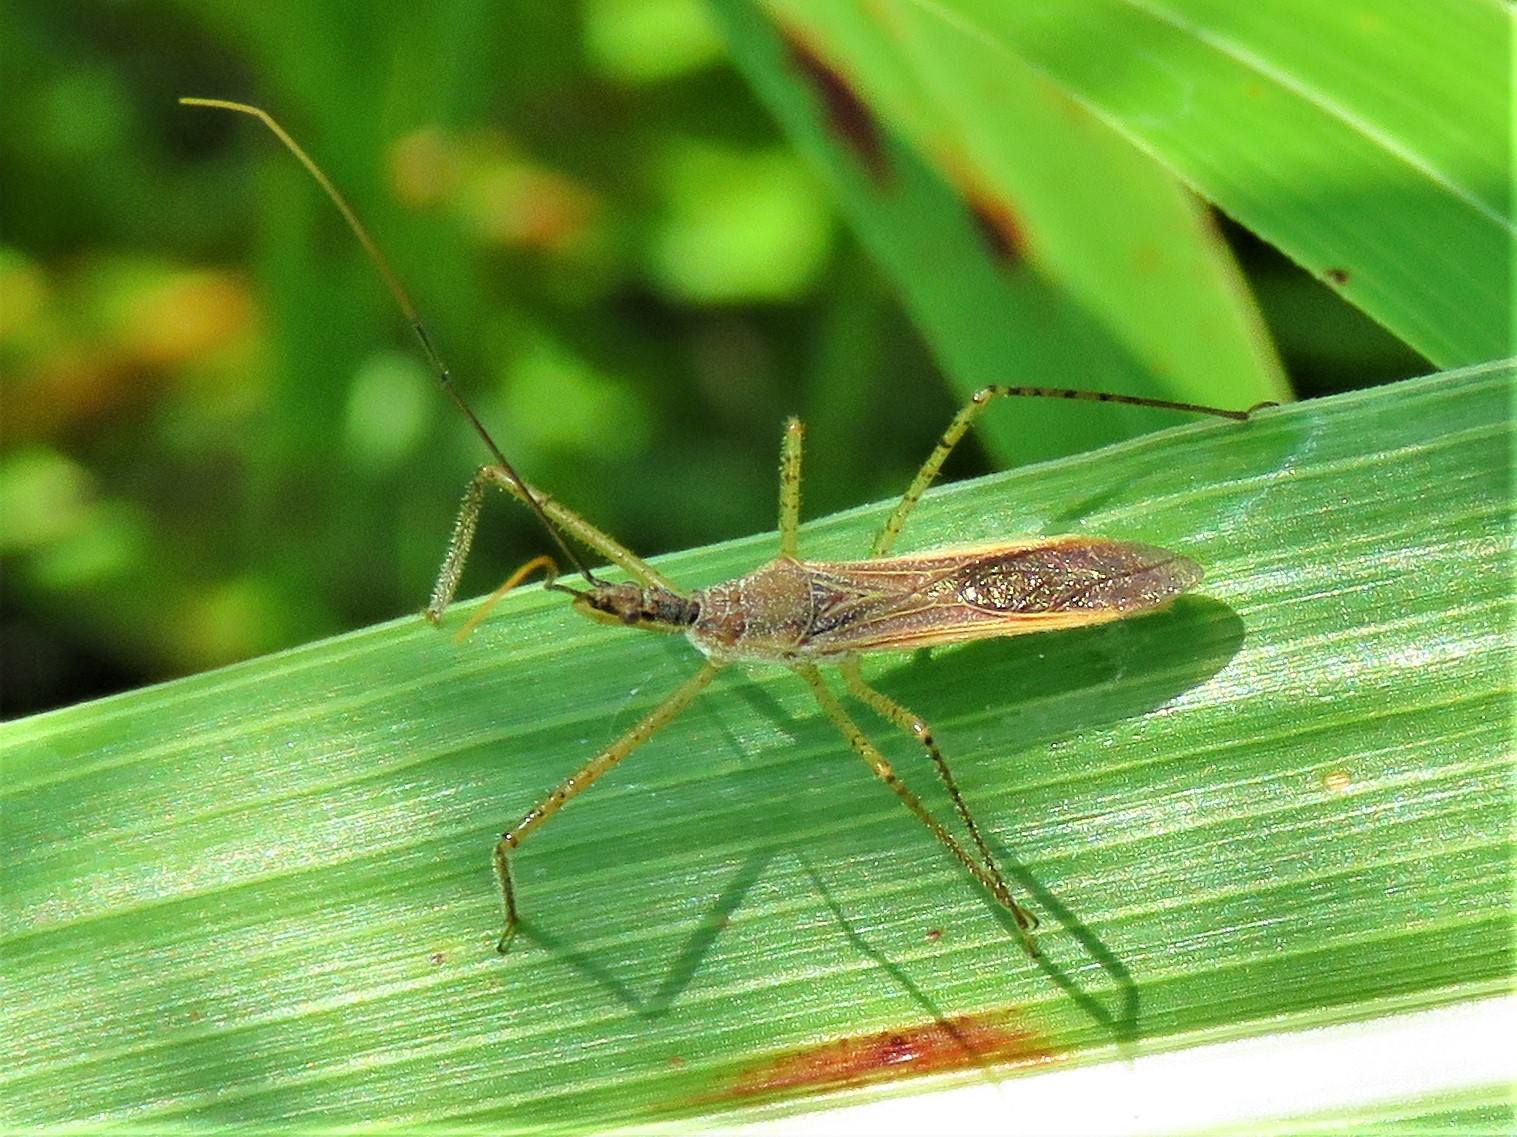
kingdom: Animalia
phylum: Arthropoda
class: Insecta
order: Hemiptera
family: Reduviidae
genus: Zelus
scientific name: Zelus cervicalis
